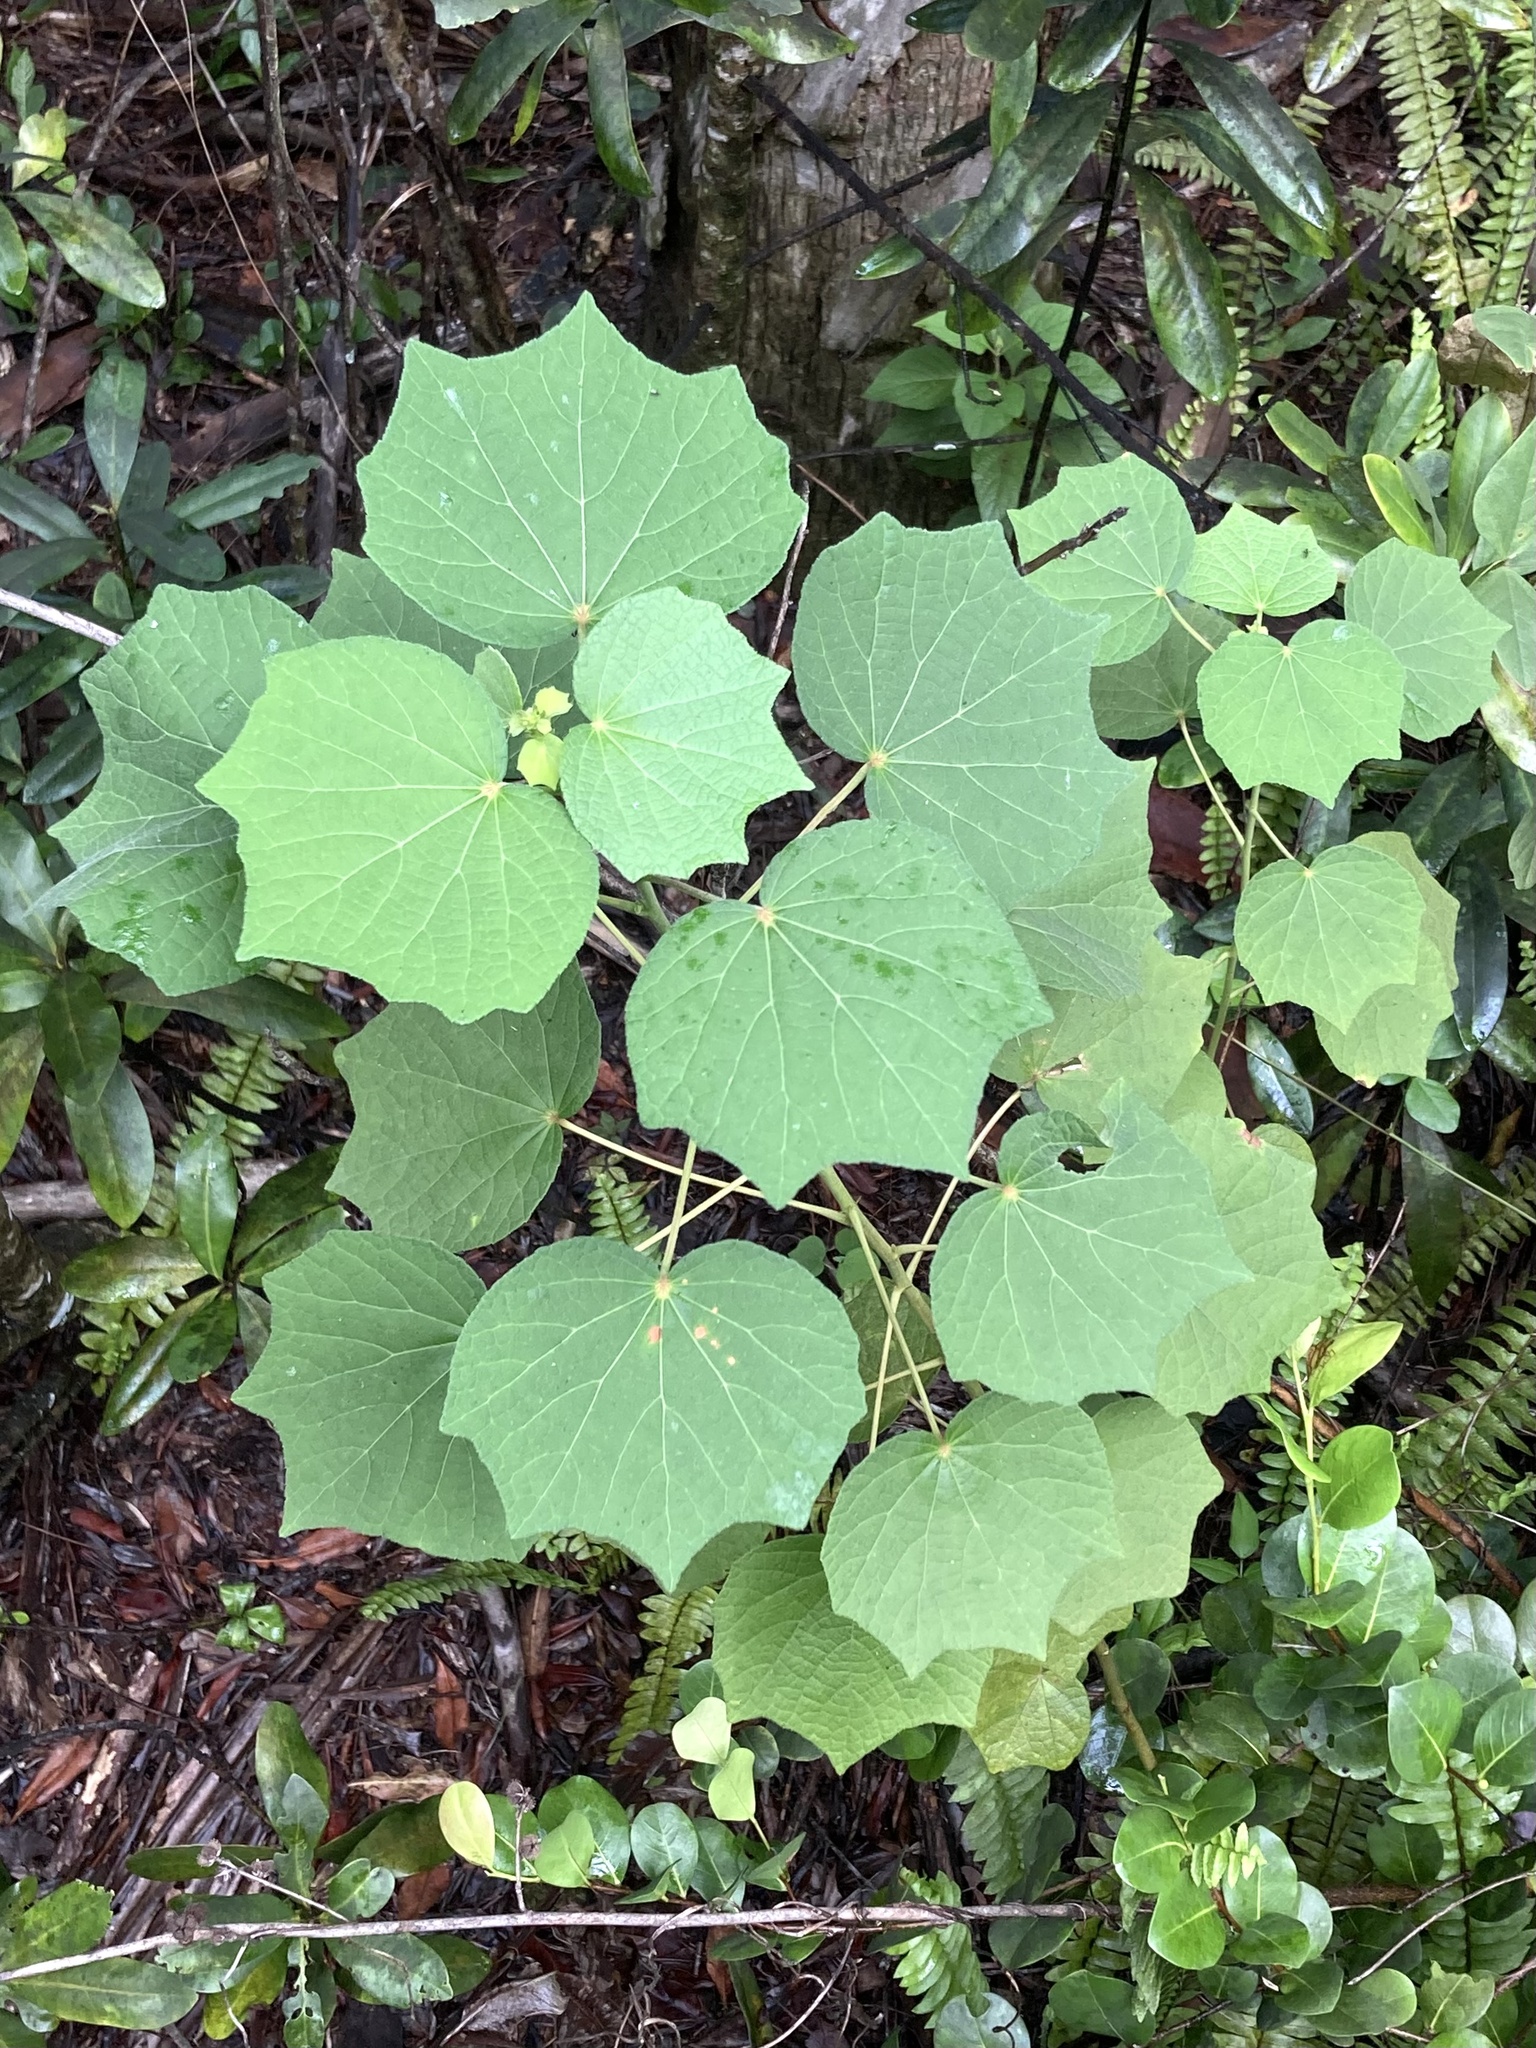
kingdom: Plantae
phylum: Tracheophyta
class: Magnoliopsida
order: Malvales
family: Malvaceae
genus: Urena
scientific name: Urena lobata
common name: Caesarweed
